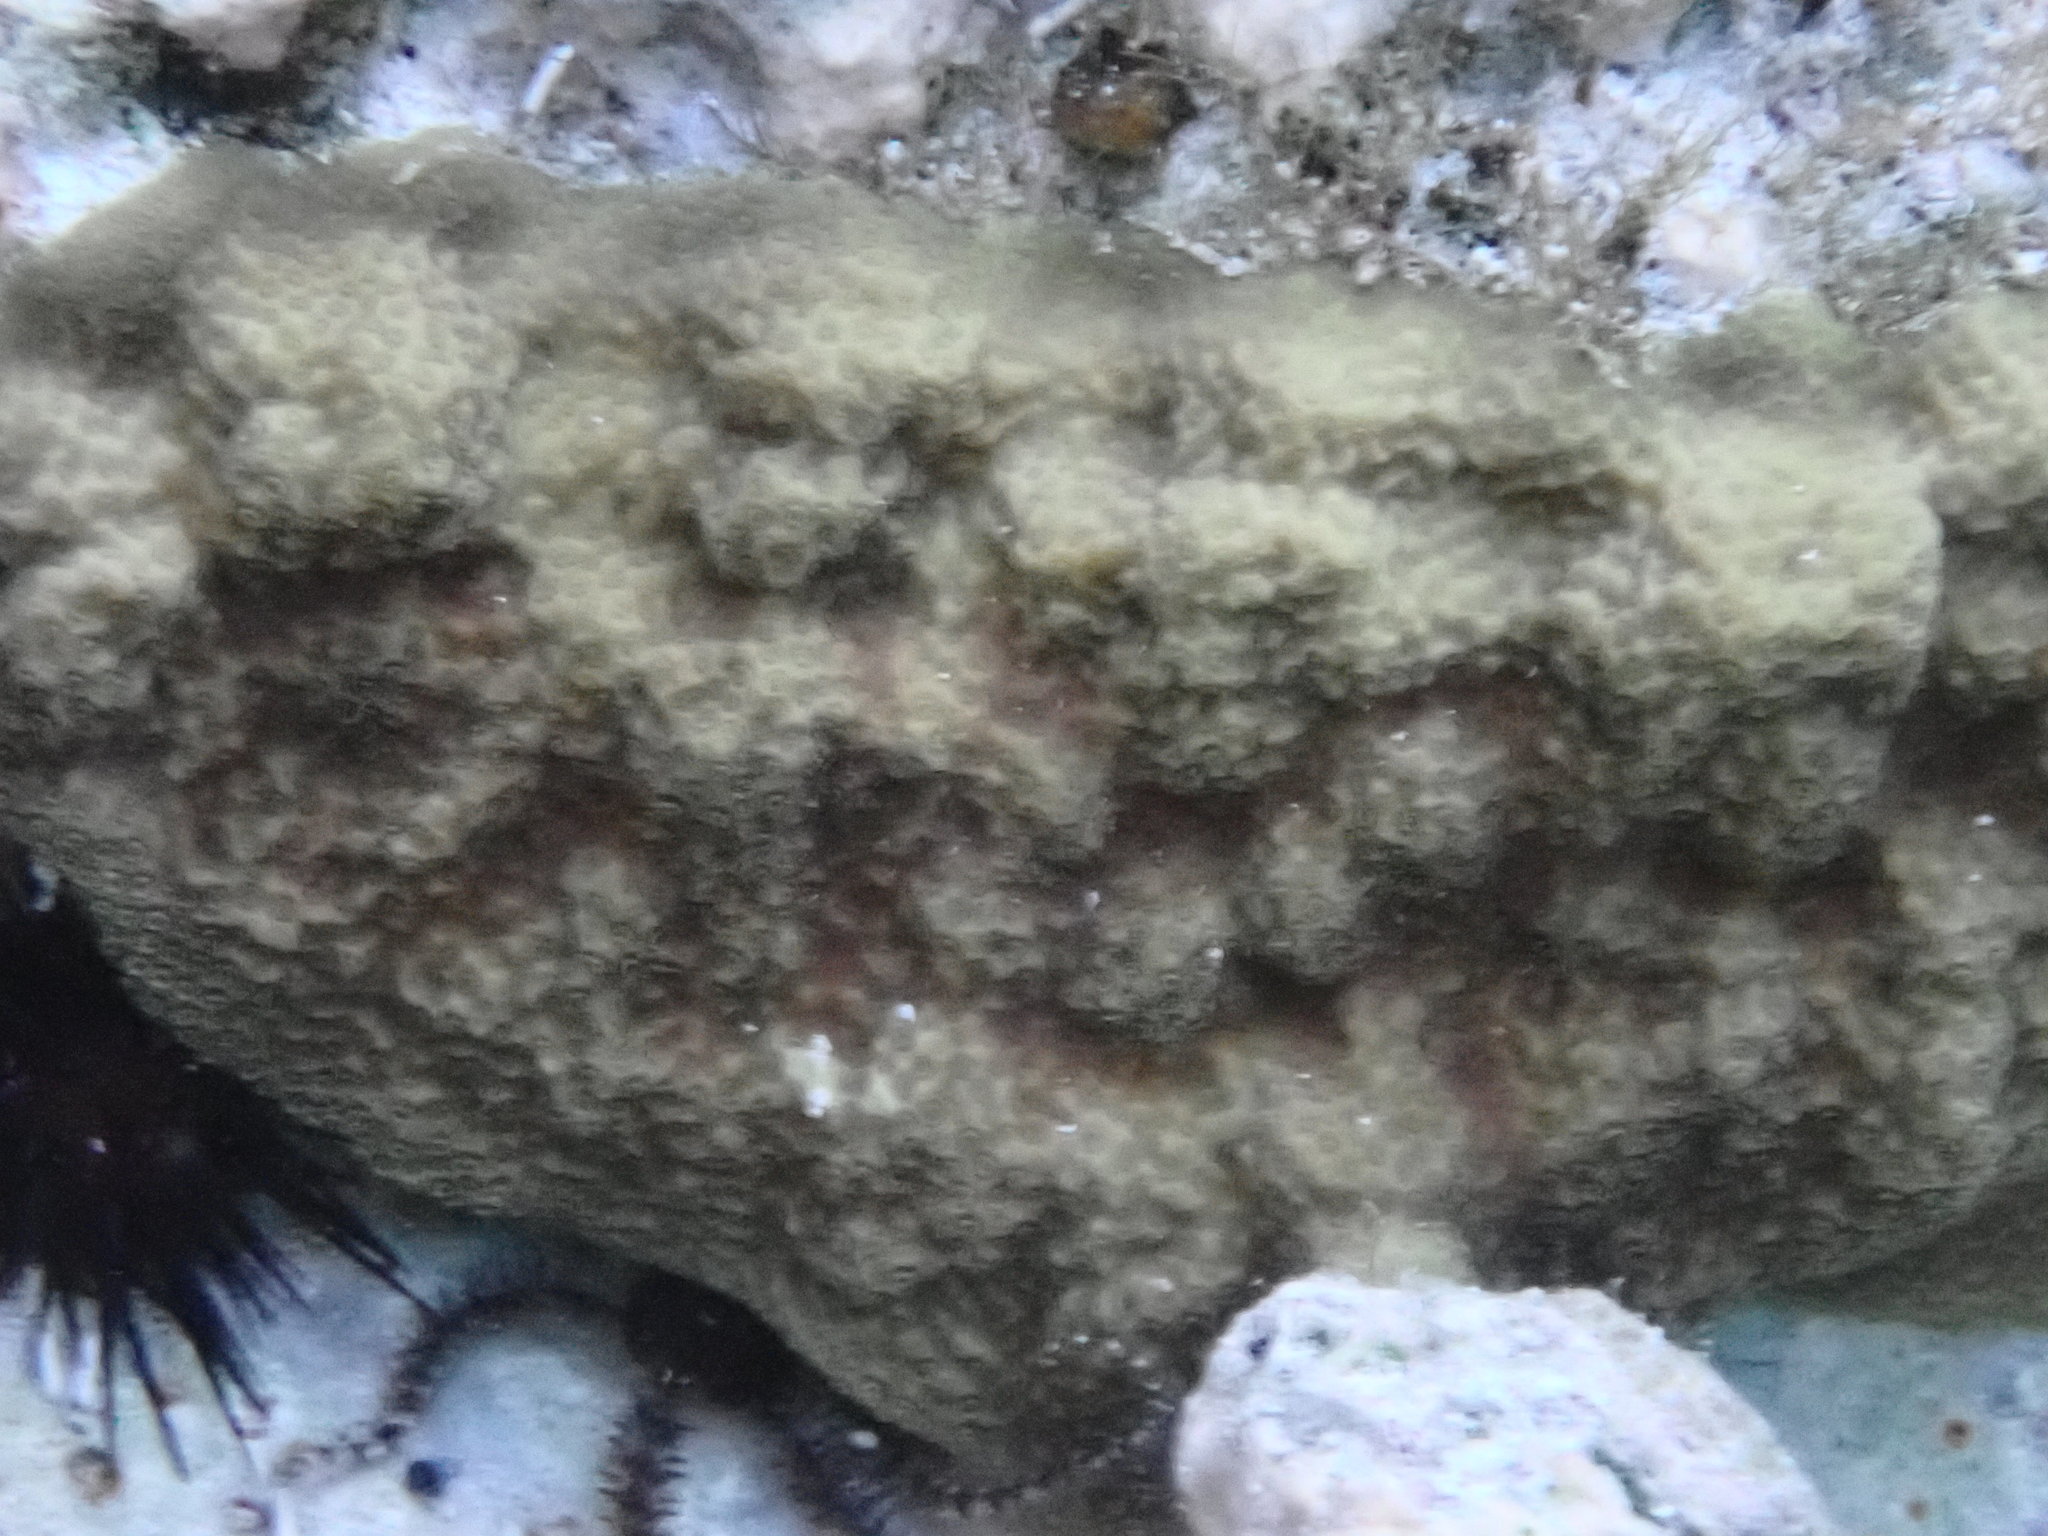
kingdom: Animalia
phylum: Cnidaria
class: Anthozoa
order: Scleractinia
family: Poritidae
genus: Porites
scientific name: Porites astreoides
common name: Mustard hill coral
